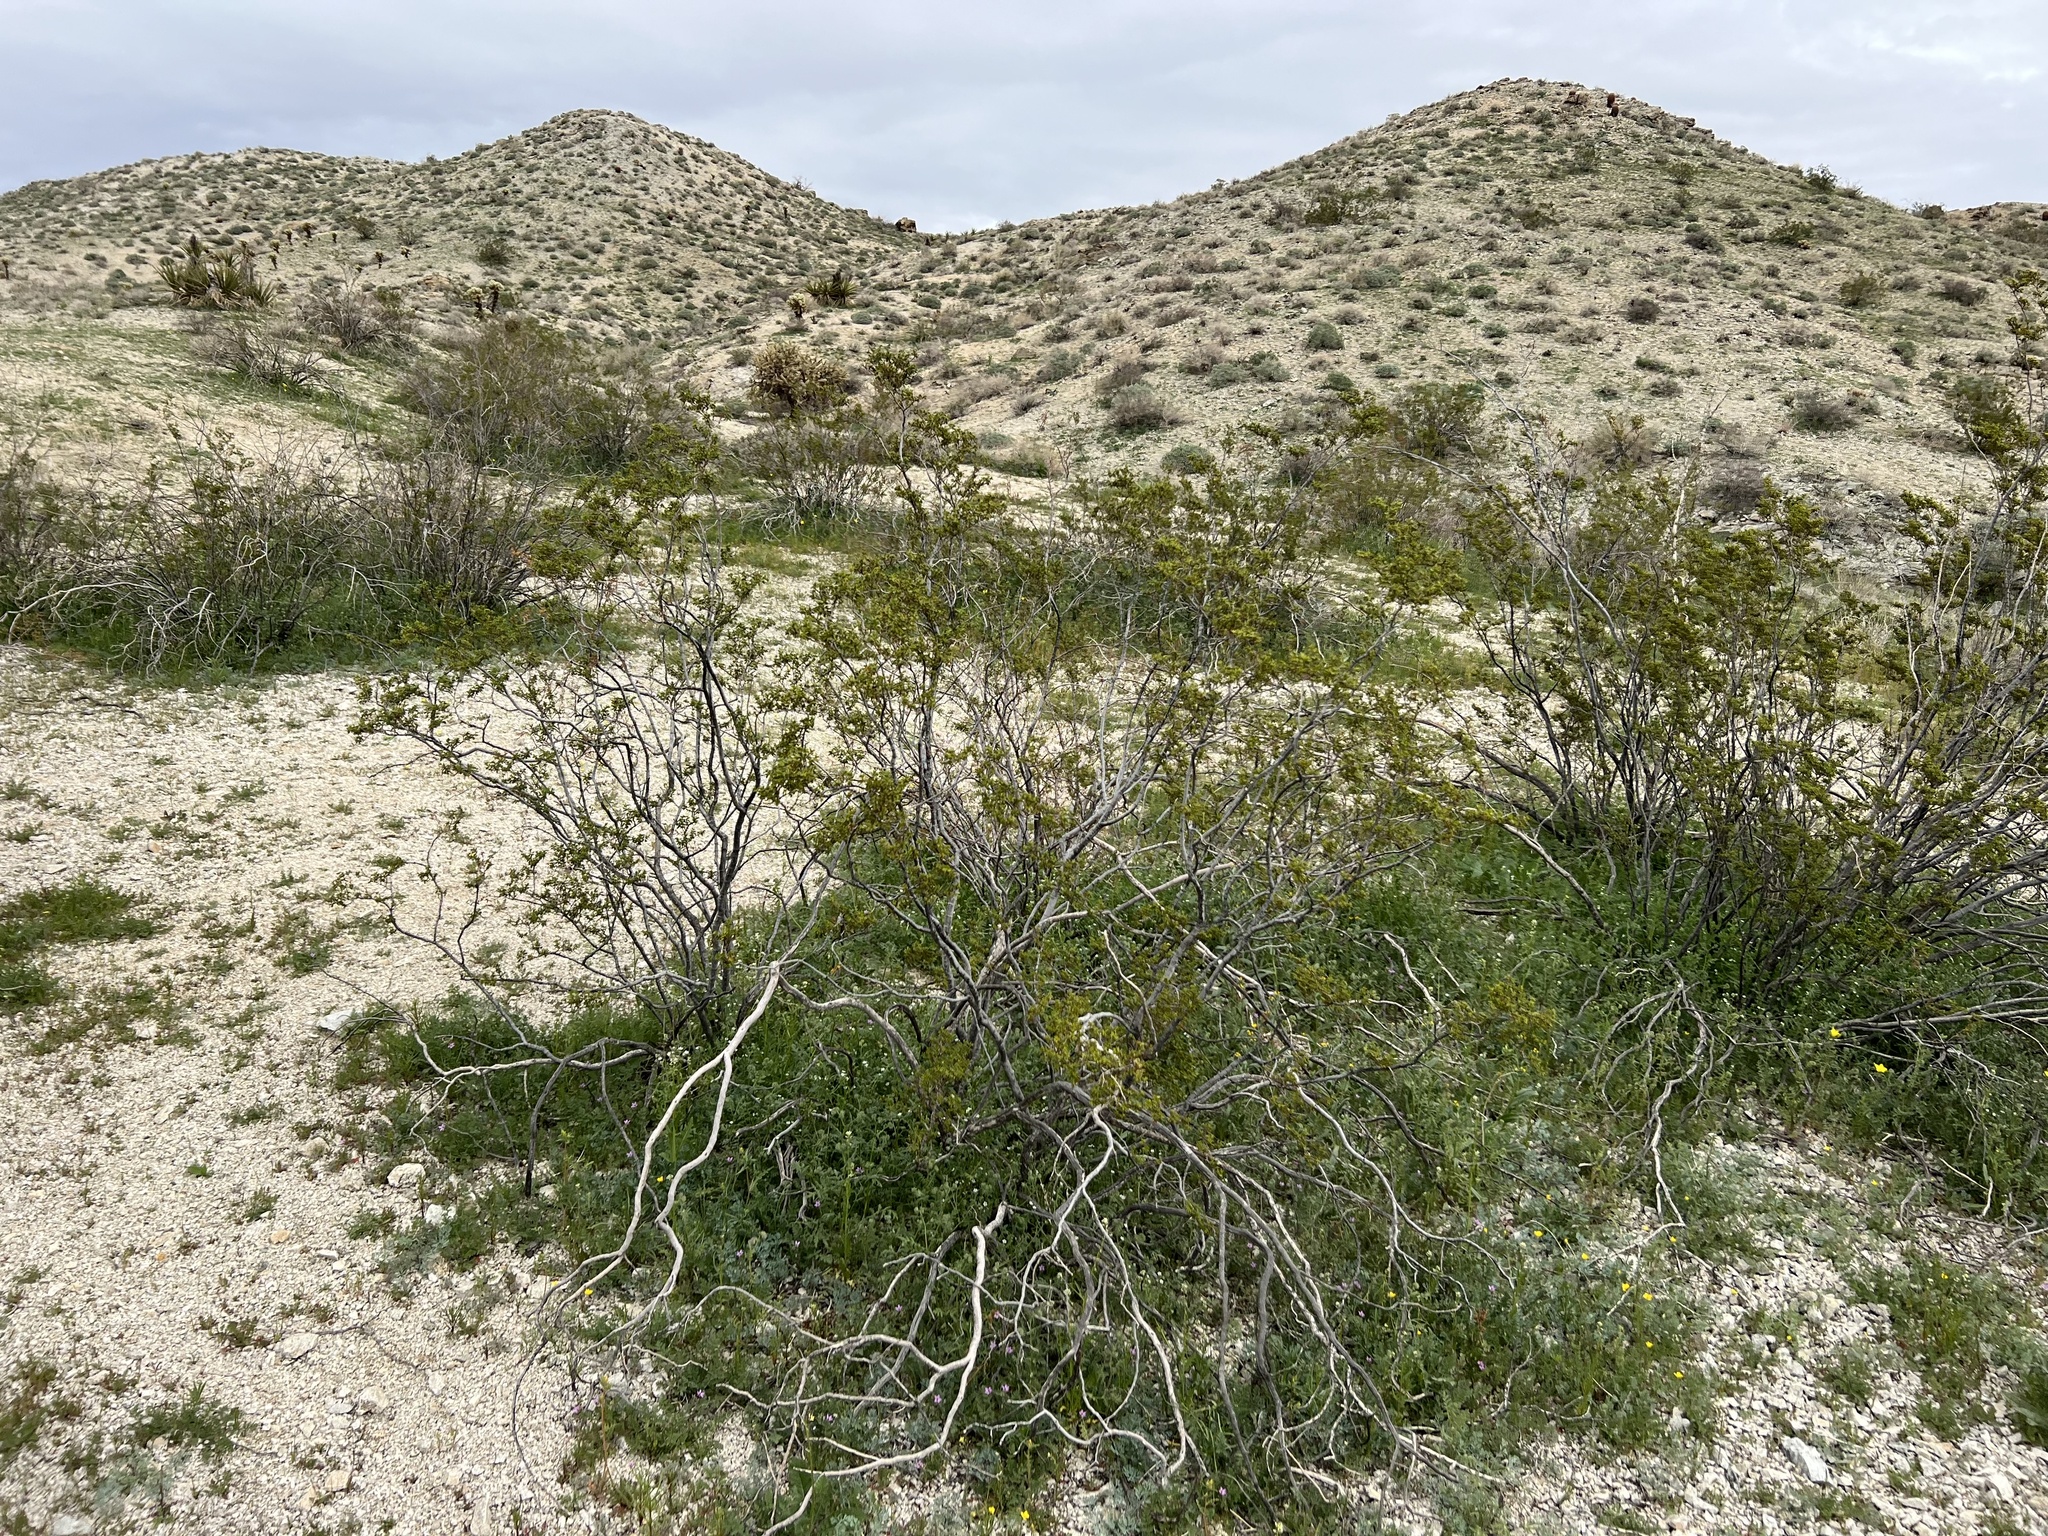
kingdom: Plantae
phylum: Tracheophyta
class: Magnoliopsida
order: Zygophyllales
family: Zygophyllaceae
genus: Larrea
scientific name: Larrea tridentata
